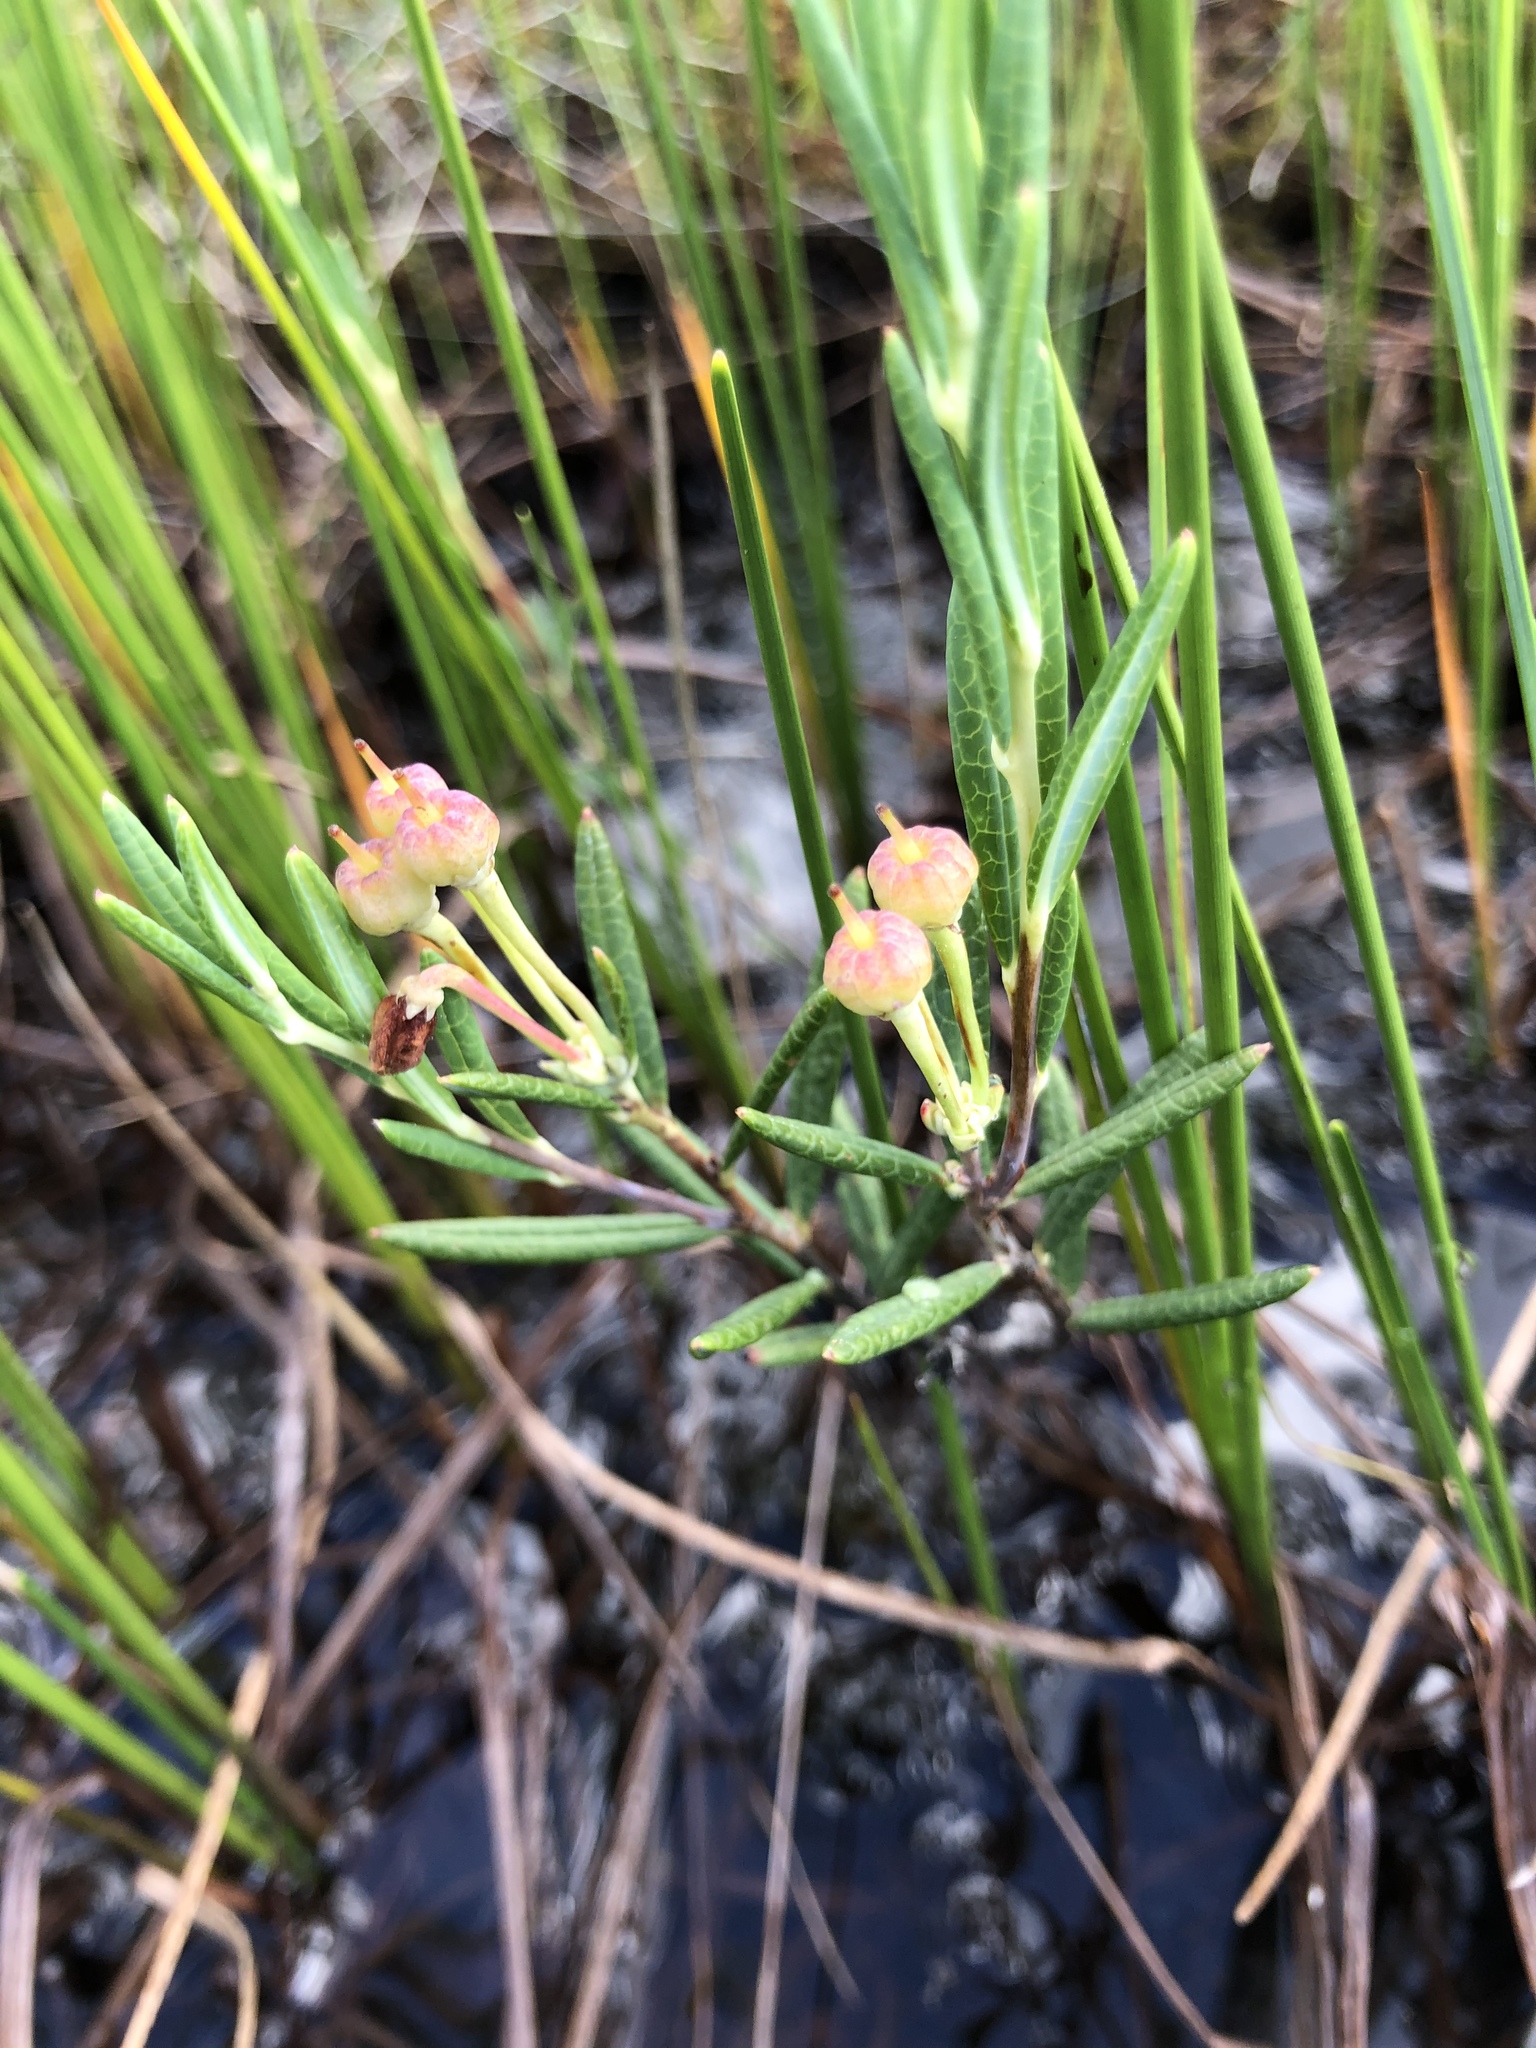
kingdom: Plantae
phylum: Tracheophyta
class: Magnoliopsida
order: Ericales
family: Ericaceae
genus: Andromeda
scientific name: Andromeda polifolia
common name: Bog-rosemary
